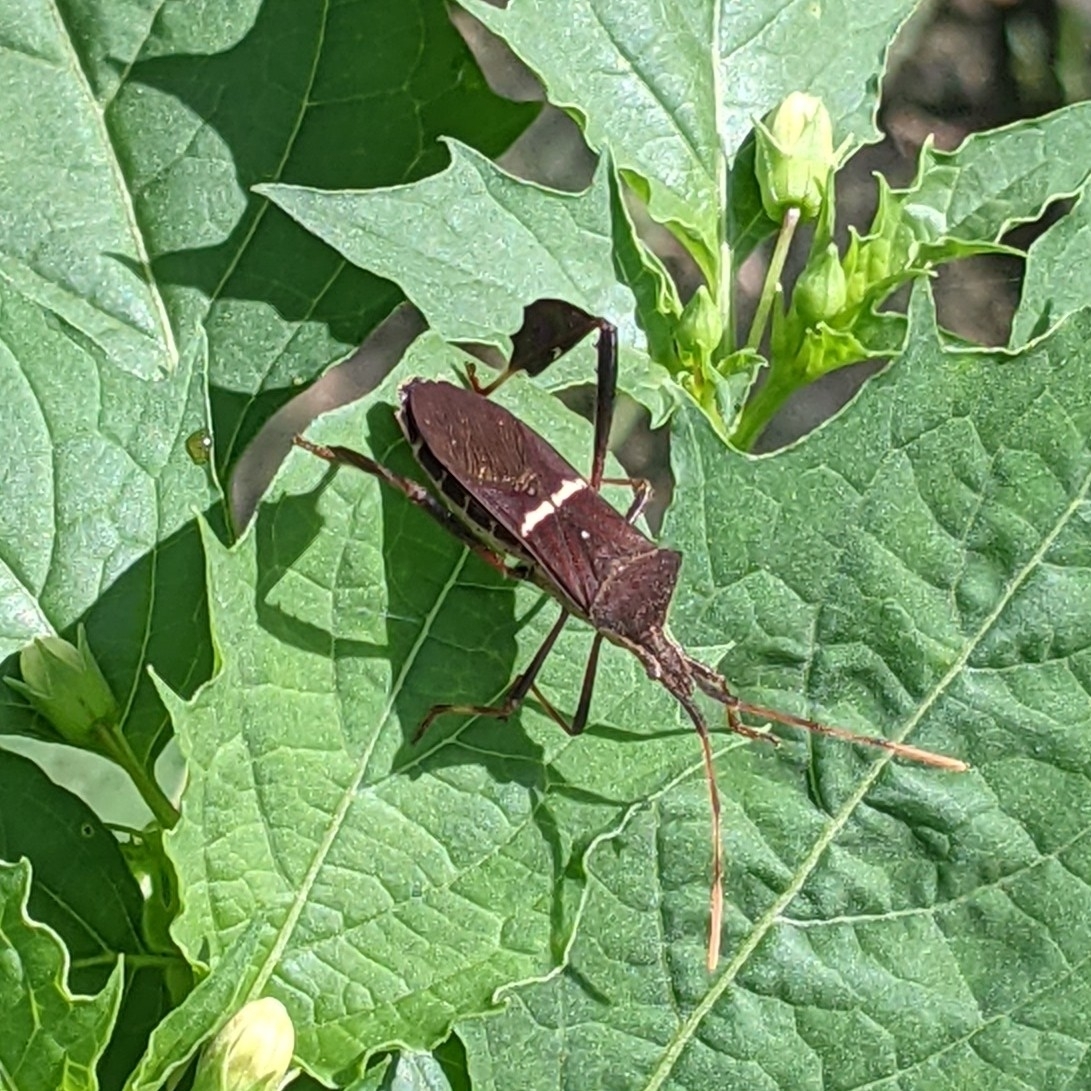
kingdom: Animalia
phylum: Arthropoda
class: Insecta
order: Hemiptera
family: Coreidae
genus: Leptoglossus
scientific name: Leptoglossus phyllopus
